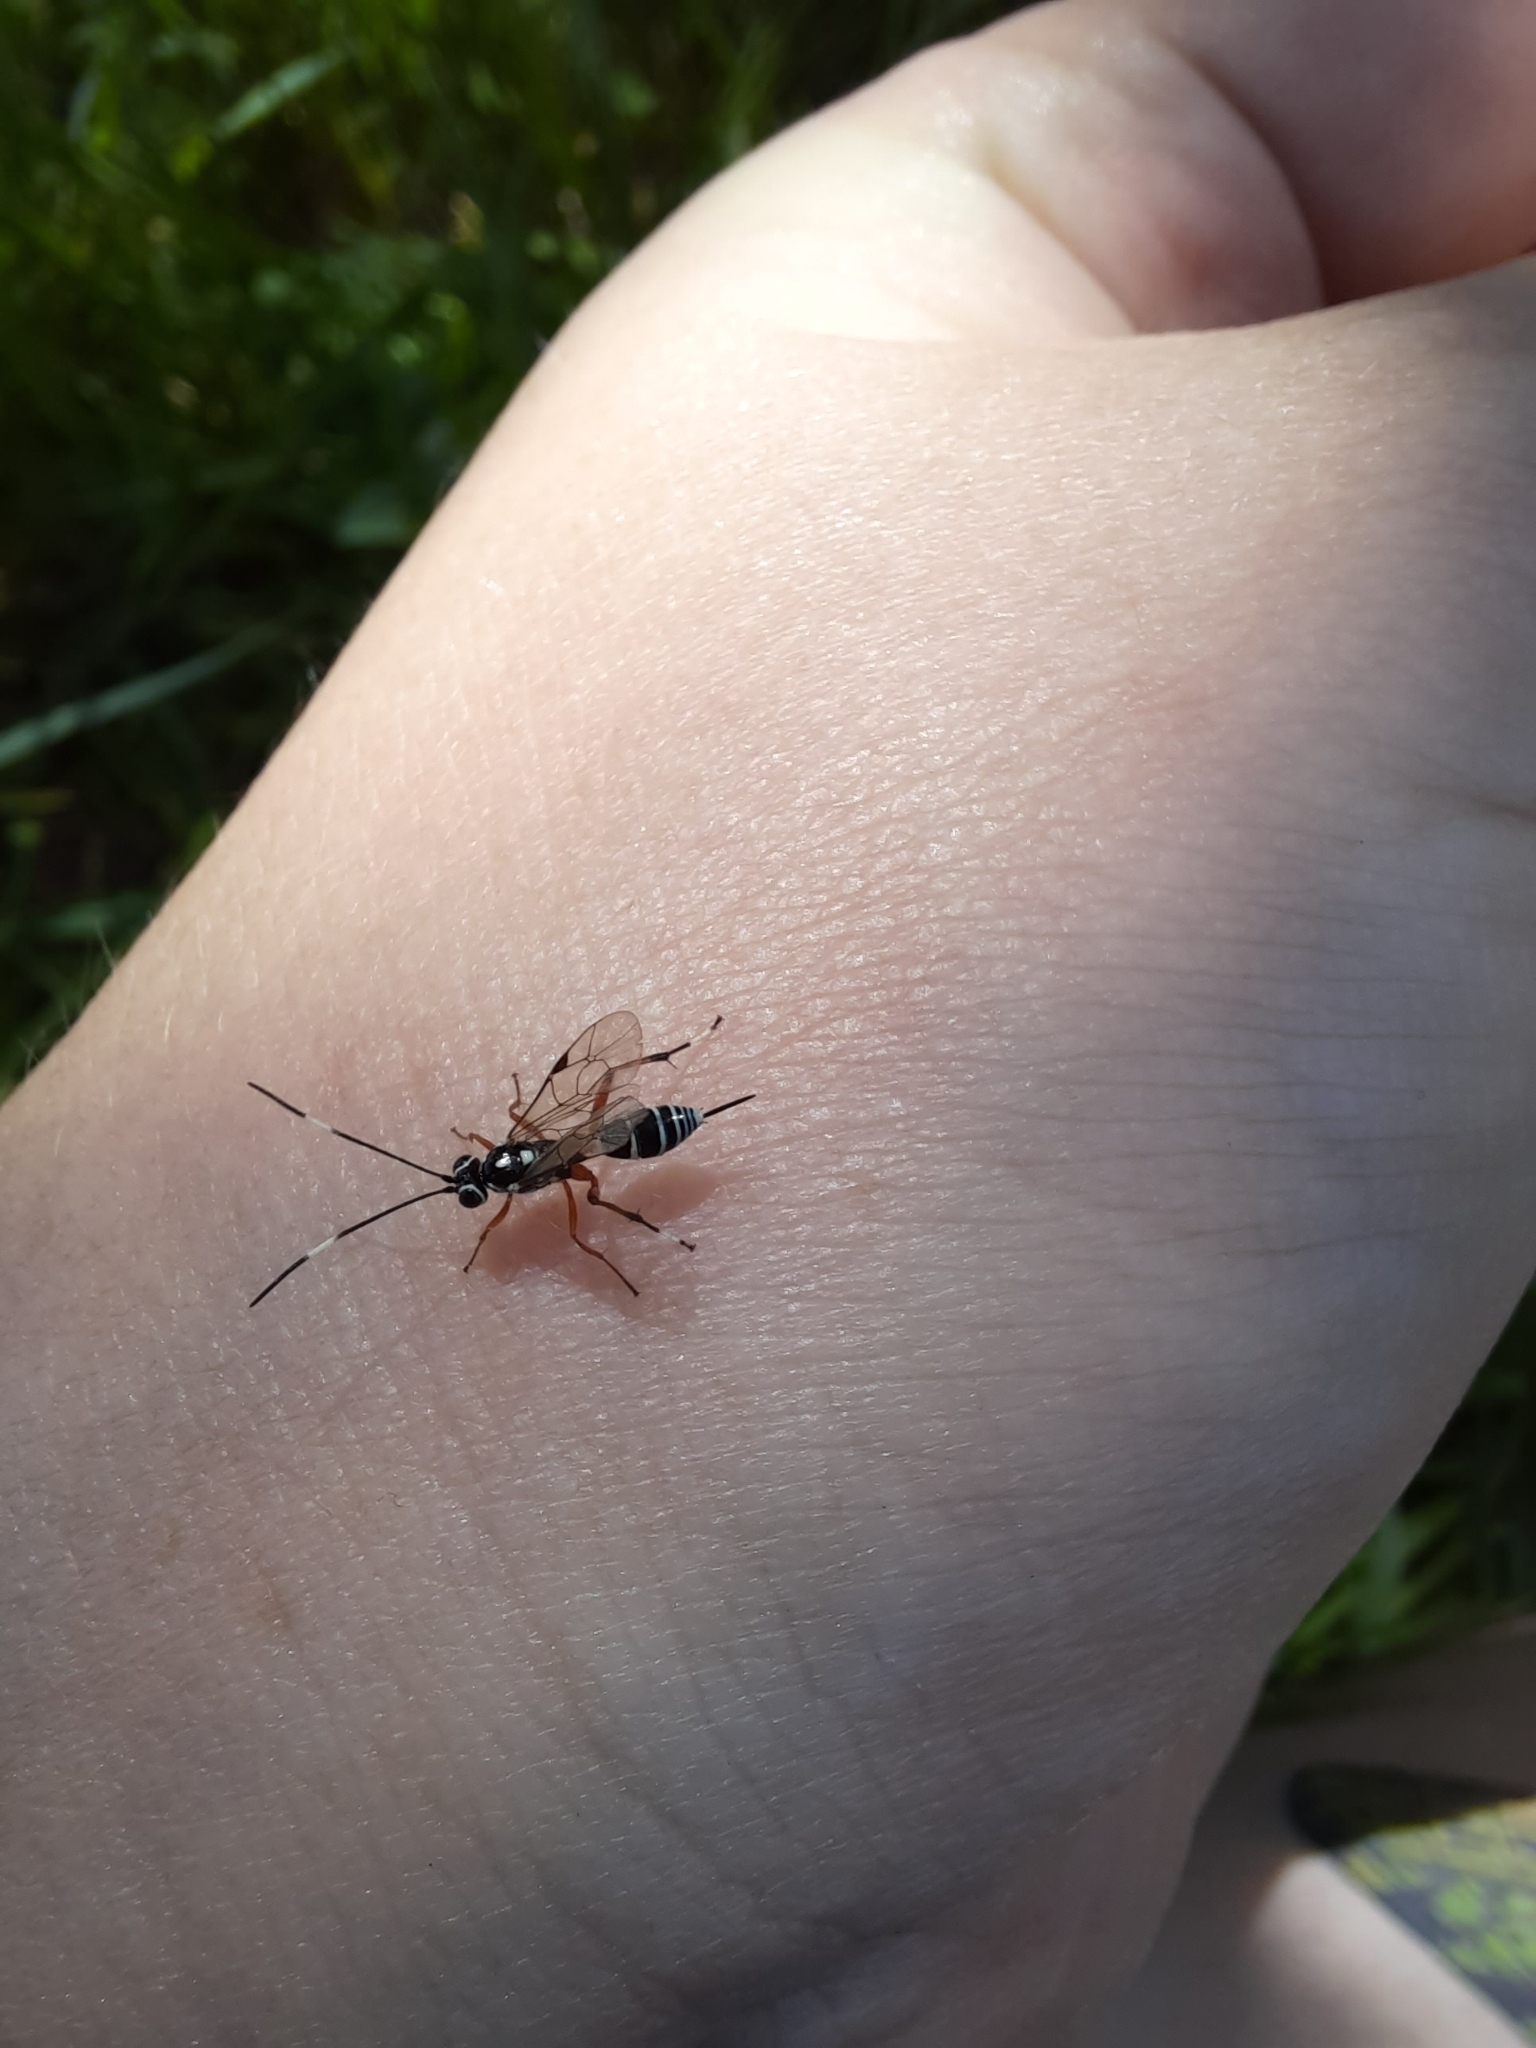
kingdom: Animalia
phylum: Arthropoda
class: Insecta
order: Hymenoptera
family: Ichneumonidae
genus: Glabridorsum
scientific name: Glabridorsum stokesii
